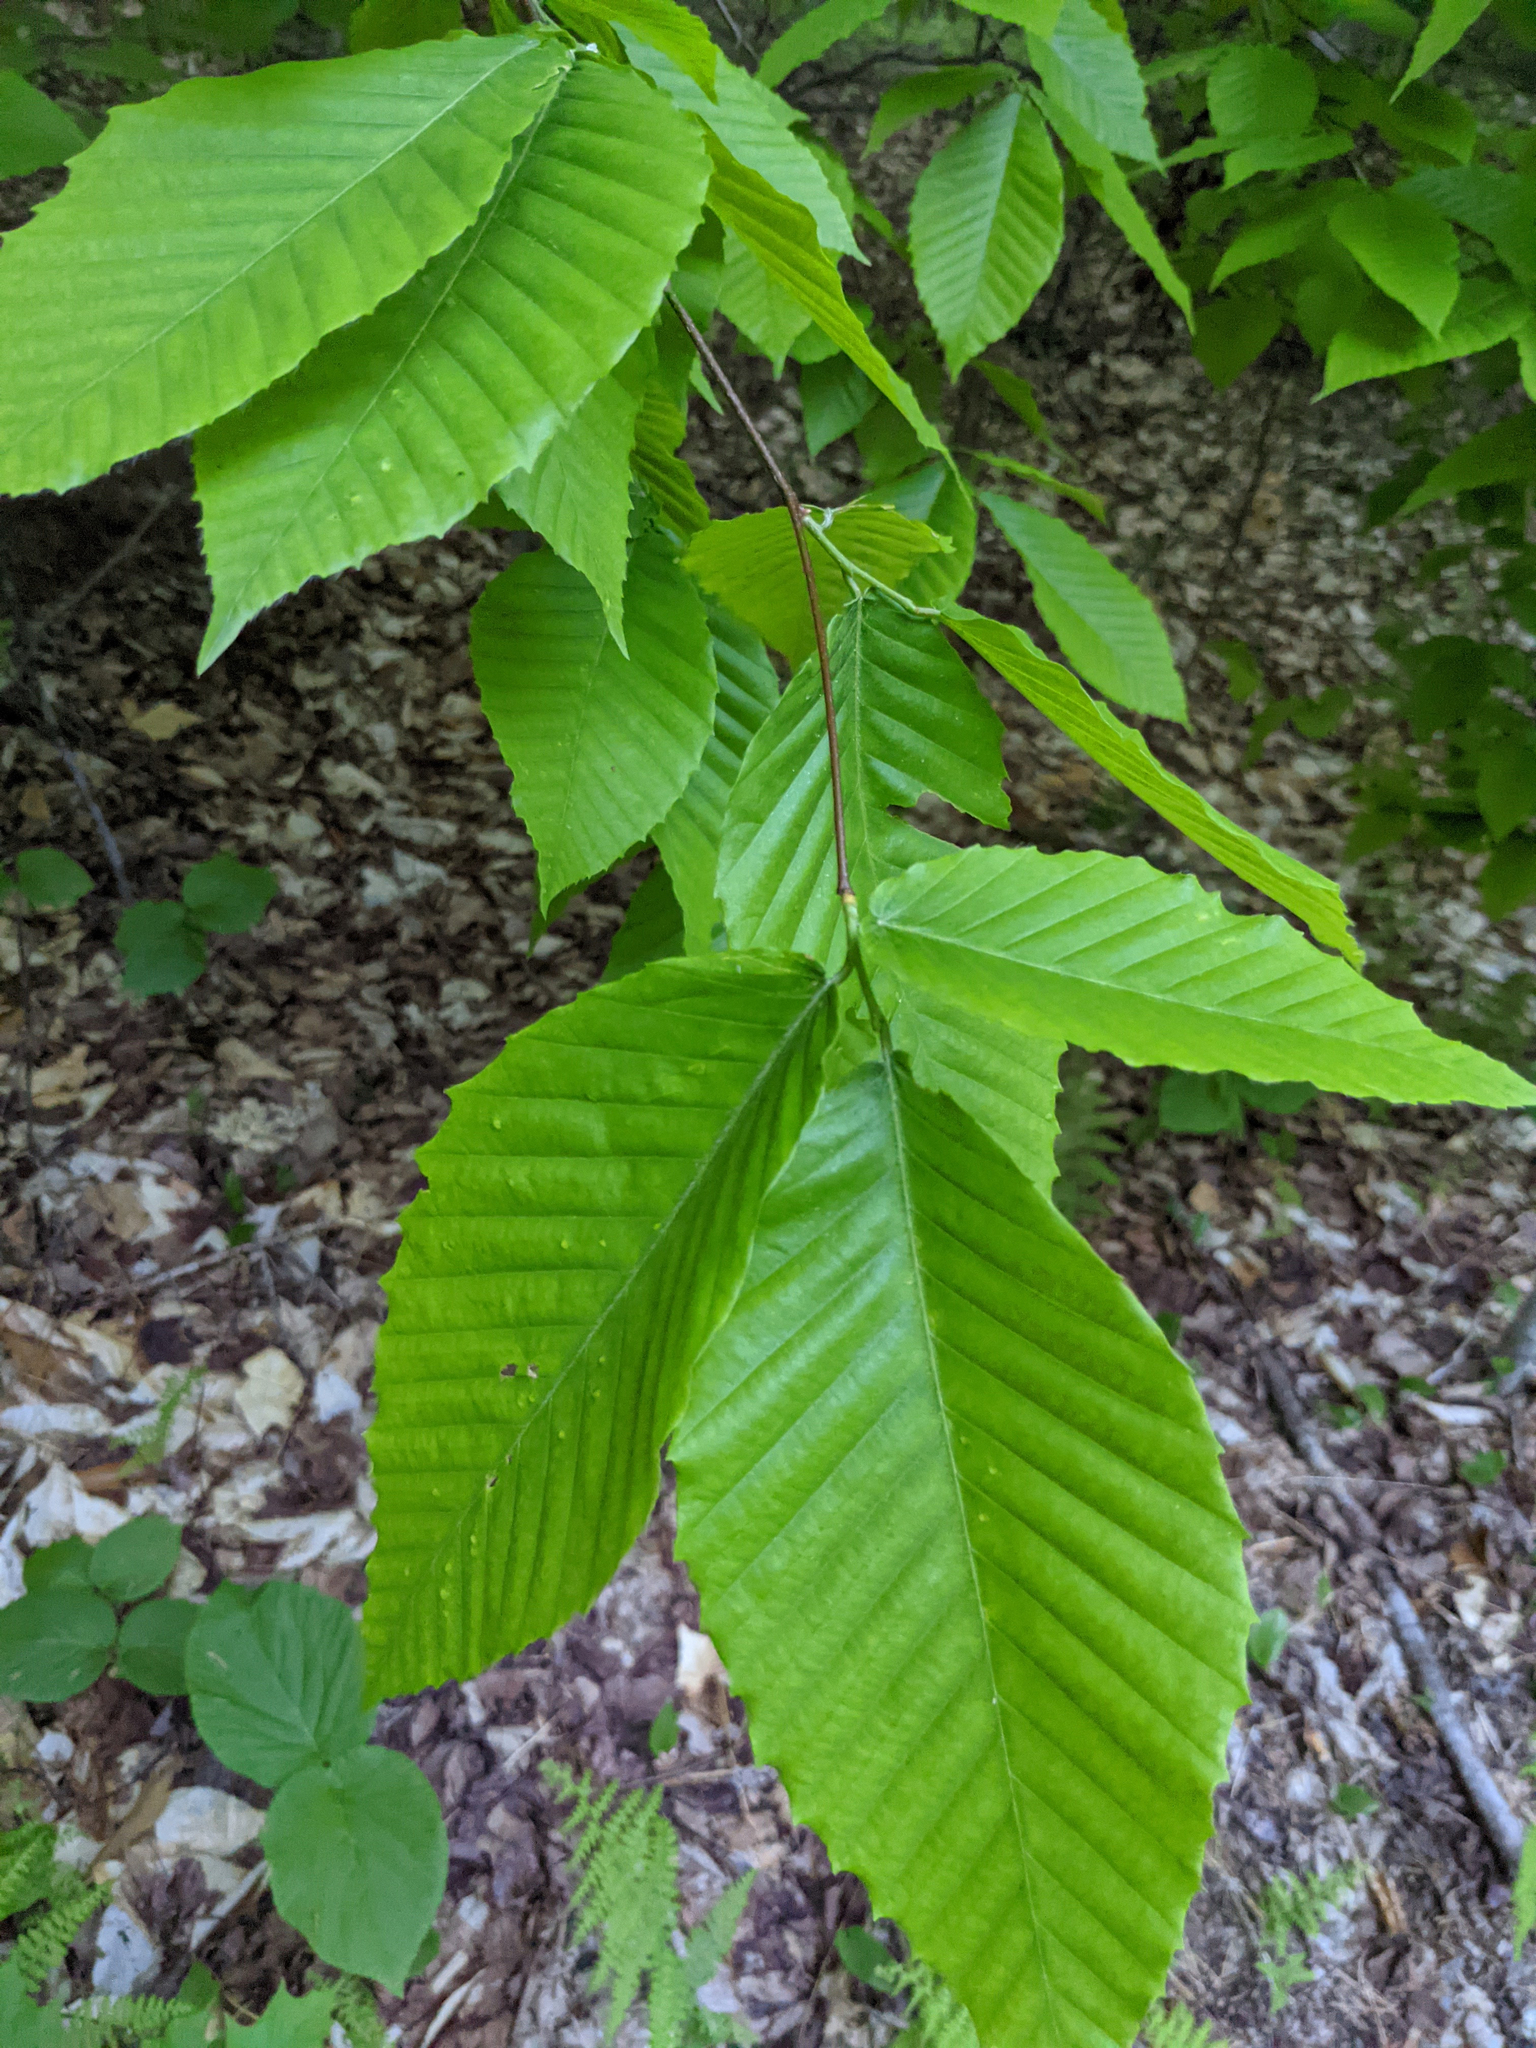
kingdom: Plantae
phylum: Tracheophyta
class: Magnoliopsida
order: Fagales
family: Fagaceae
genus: Fagus
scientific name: Fagus grandifolia
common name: American beech
